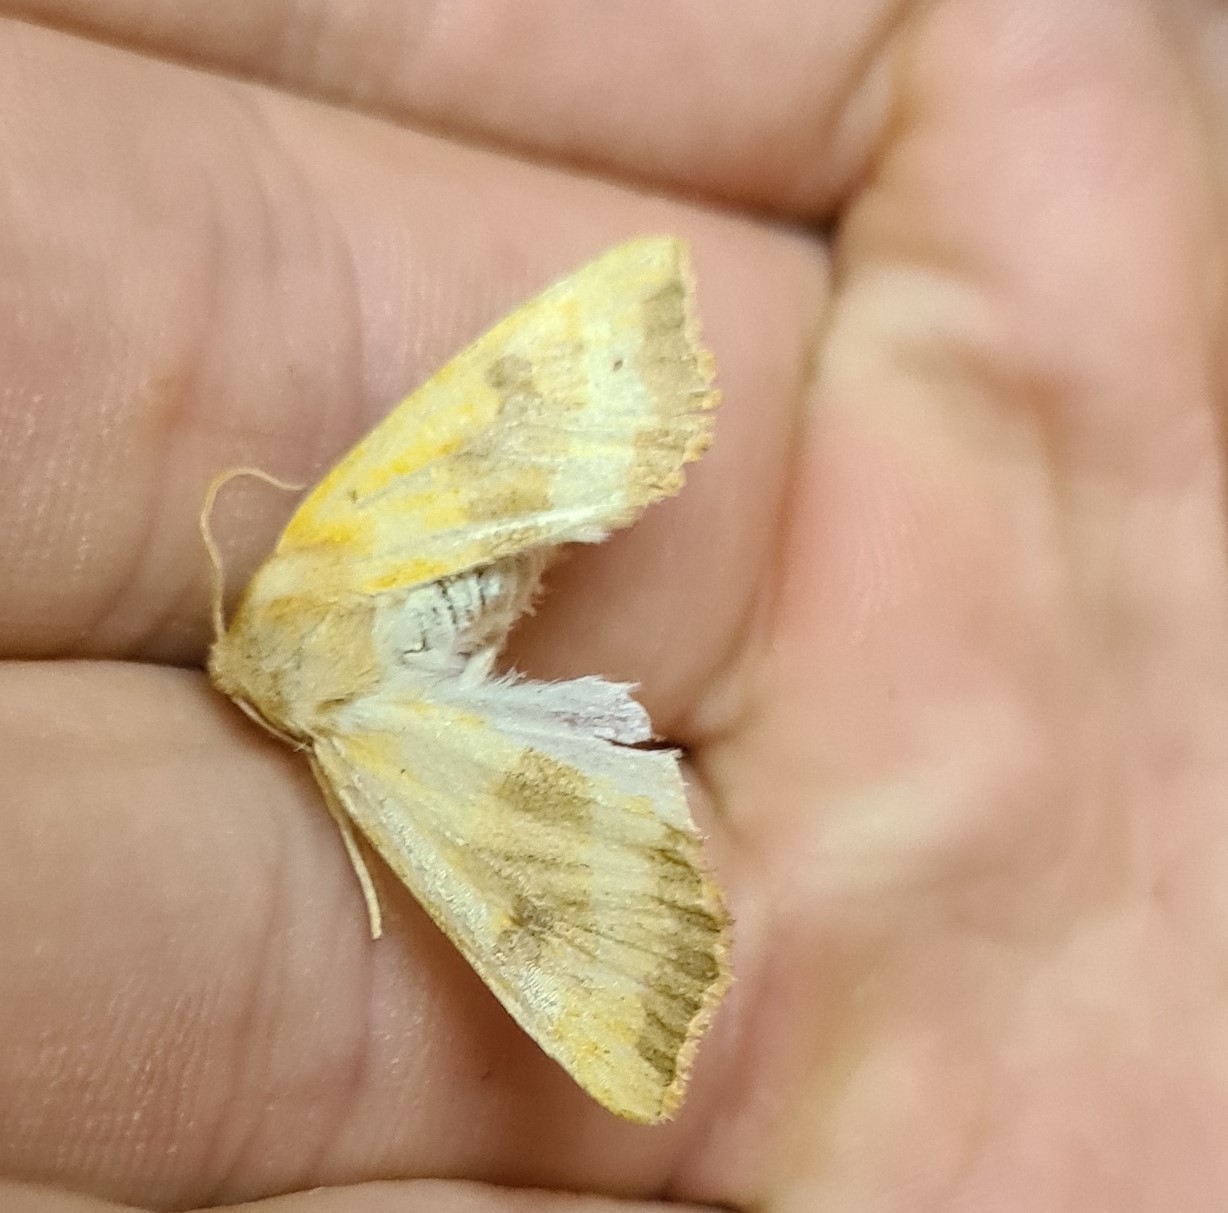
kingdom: Animalia
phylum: Arthropoda
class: Insecta
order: Lepidoptera
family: Noctuidae
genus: Atethmia
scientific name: Atethmia centrago
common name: Centre-barred sallow
